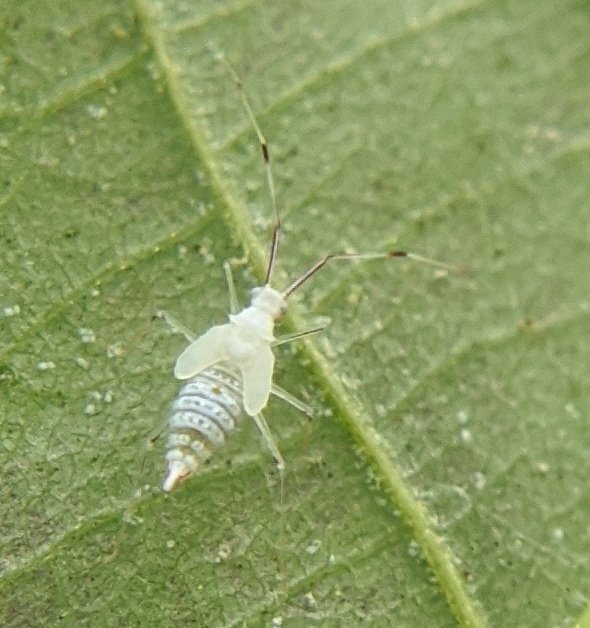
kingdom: Animalia
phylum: Arthropoda
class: Insecta
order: Hemiptera
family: Miridae
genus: Hyaliodes
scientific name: Hyaliodes harti
